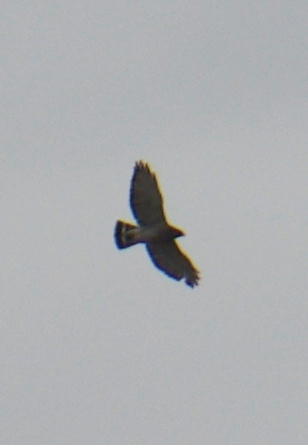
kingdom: Animalia
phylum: Chordata
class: Aves
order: Accipitriformes
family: Accipitridae
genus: Buteo
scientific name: Buteo platypterus
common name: Broad-winged hawk
